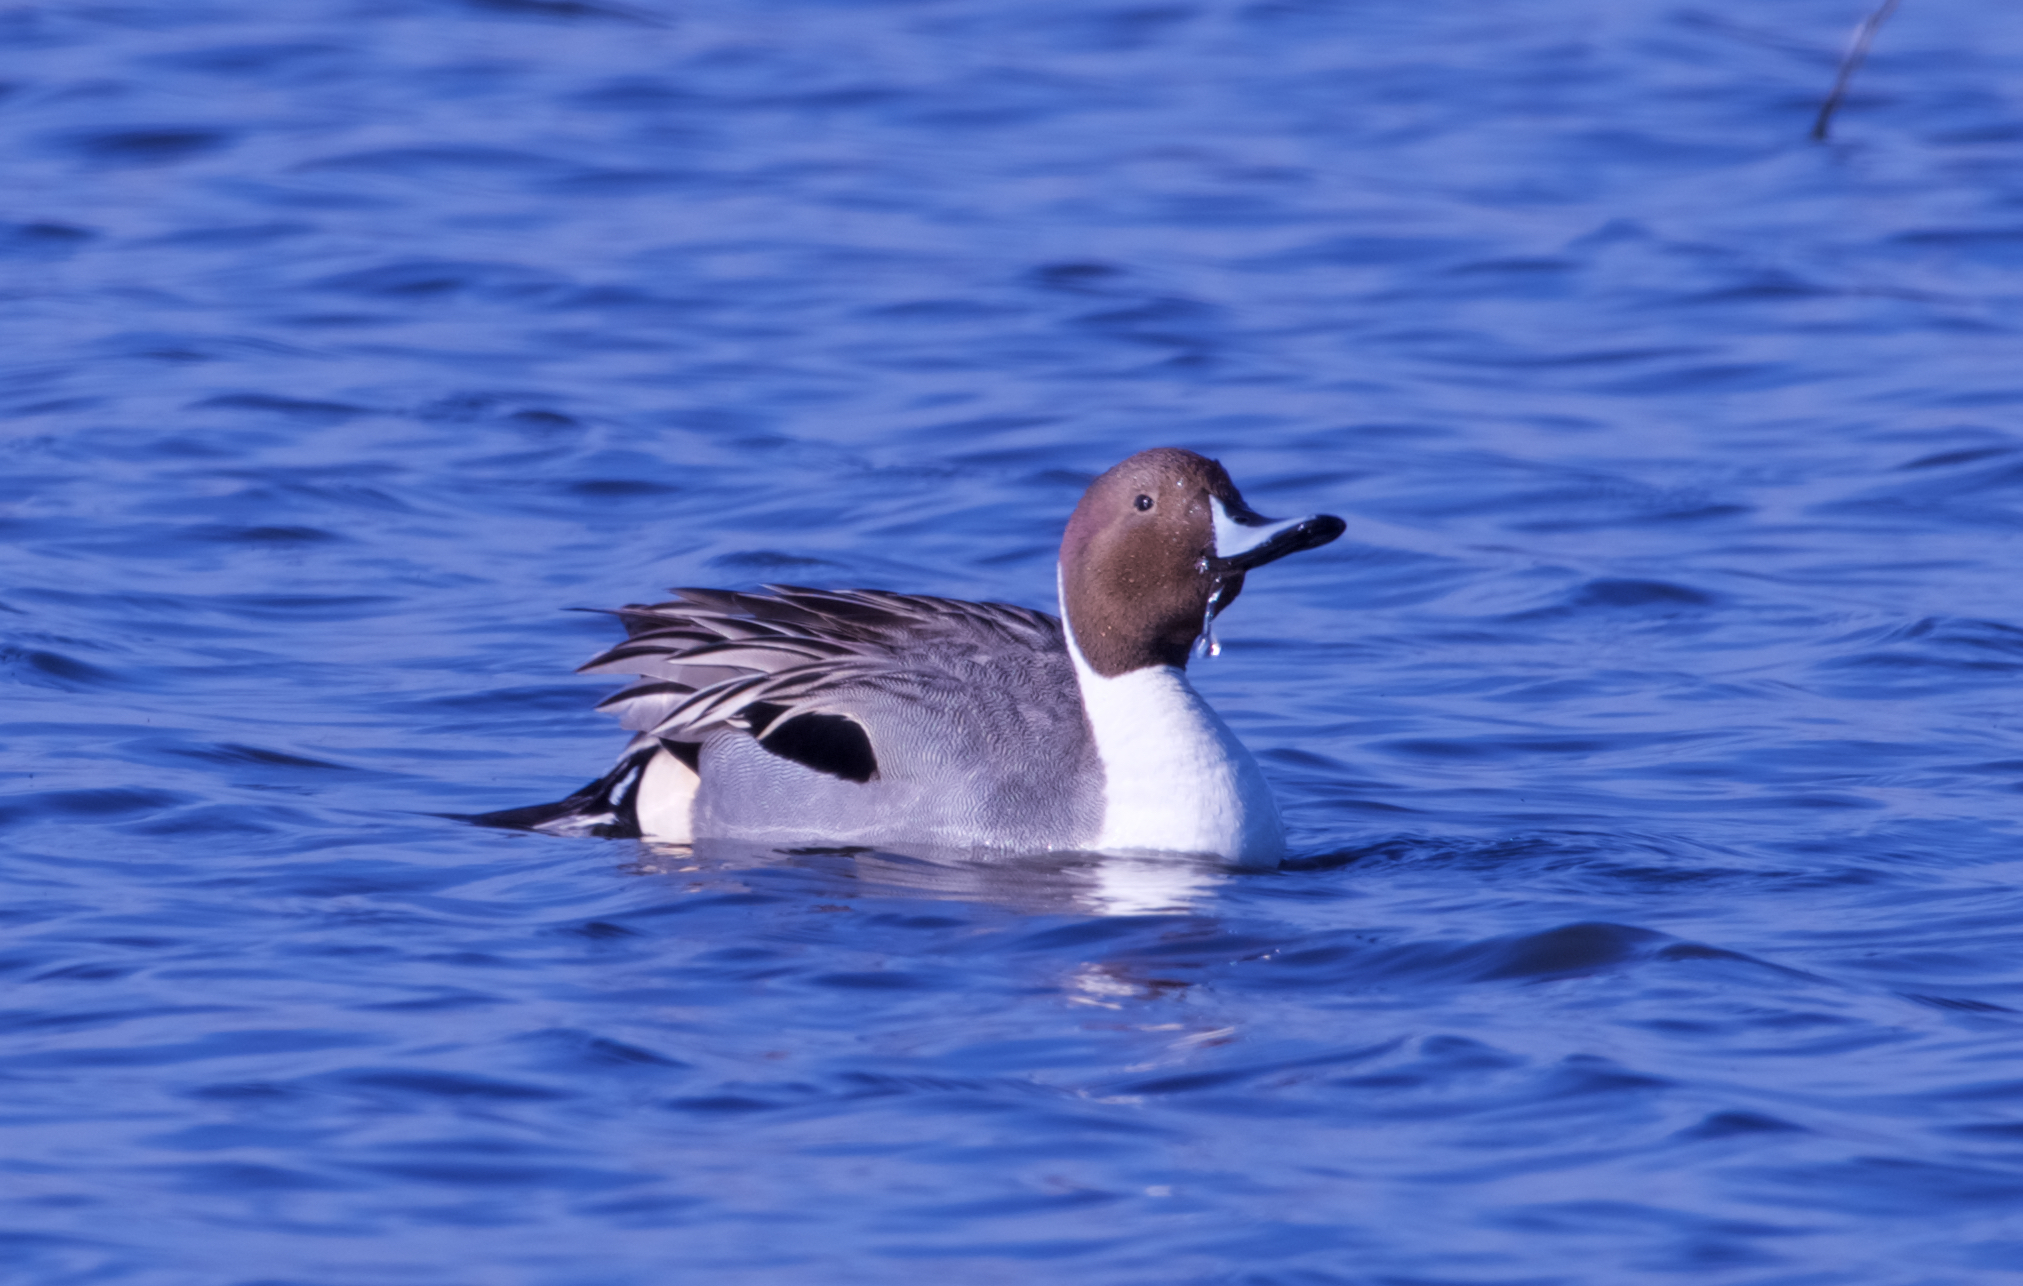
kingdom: Animalia
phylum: Chordata
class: Aves
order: Anseriformes
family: Anatidae
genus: Anas
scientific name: Anas acuta
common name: Northern pintail
